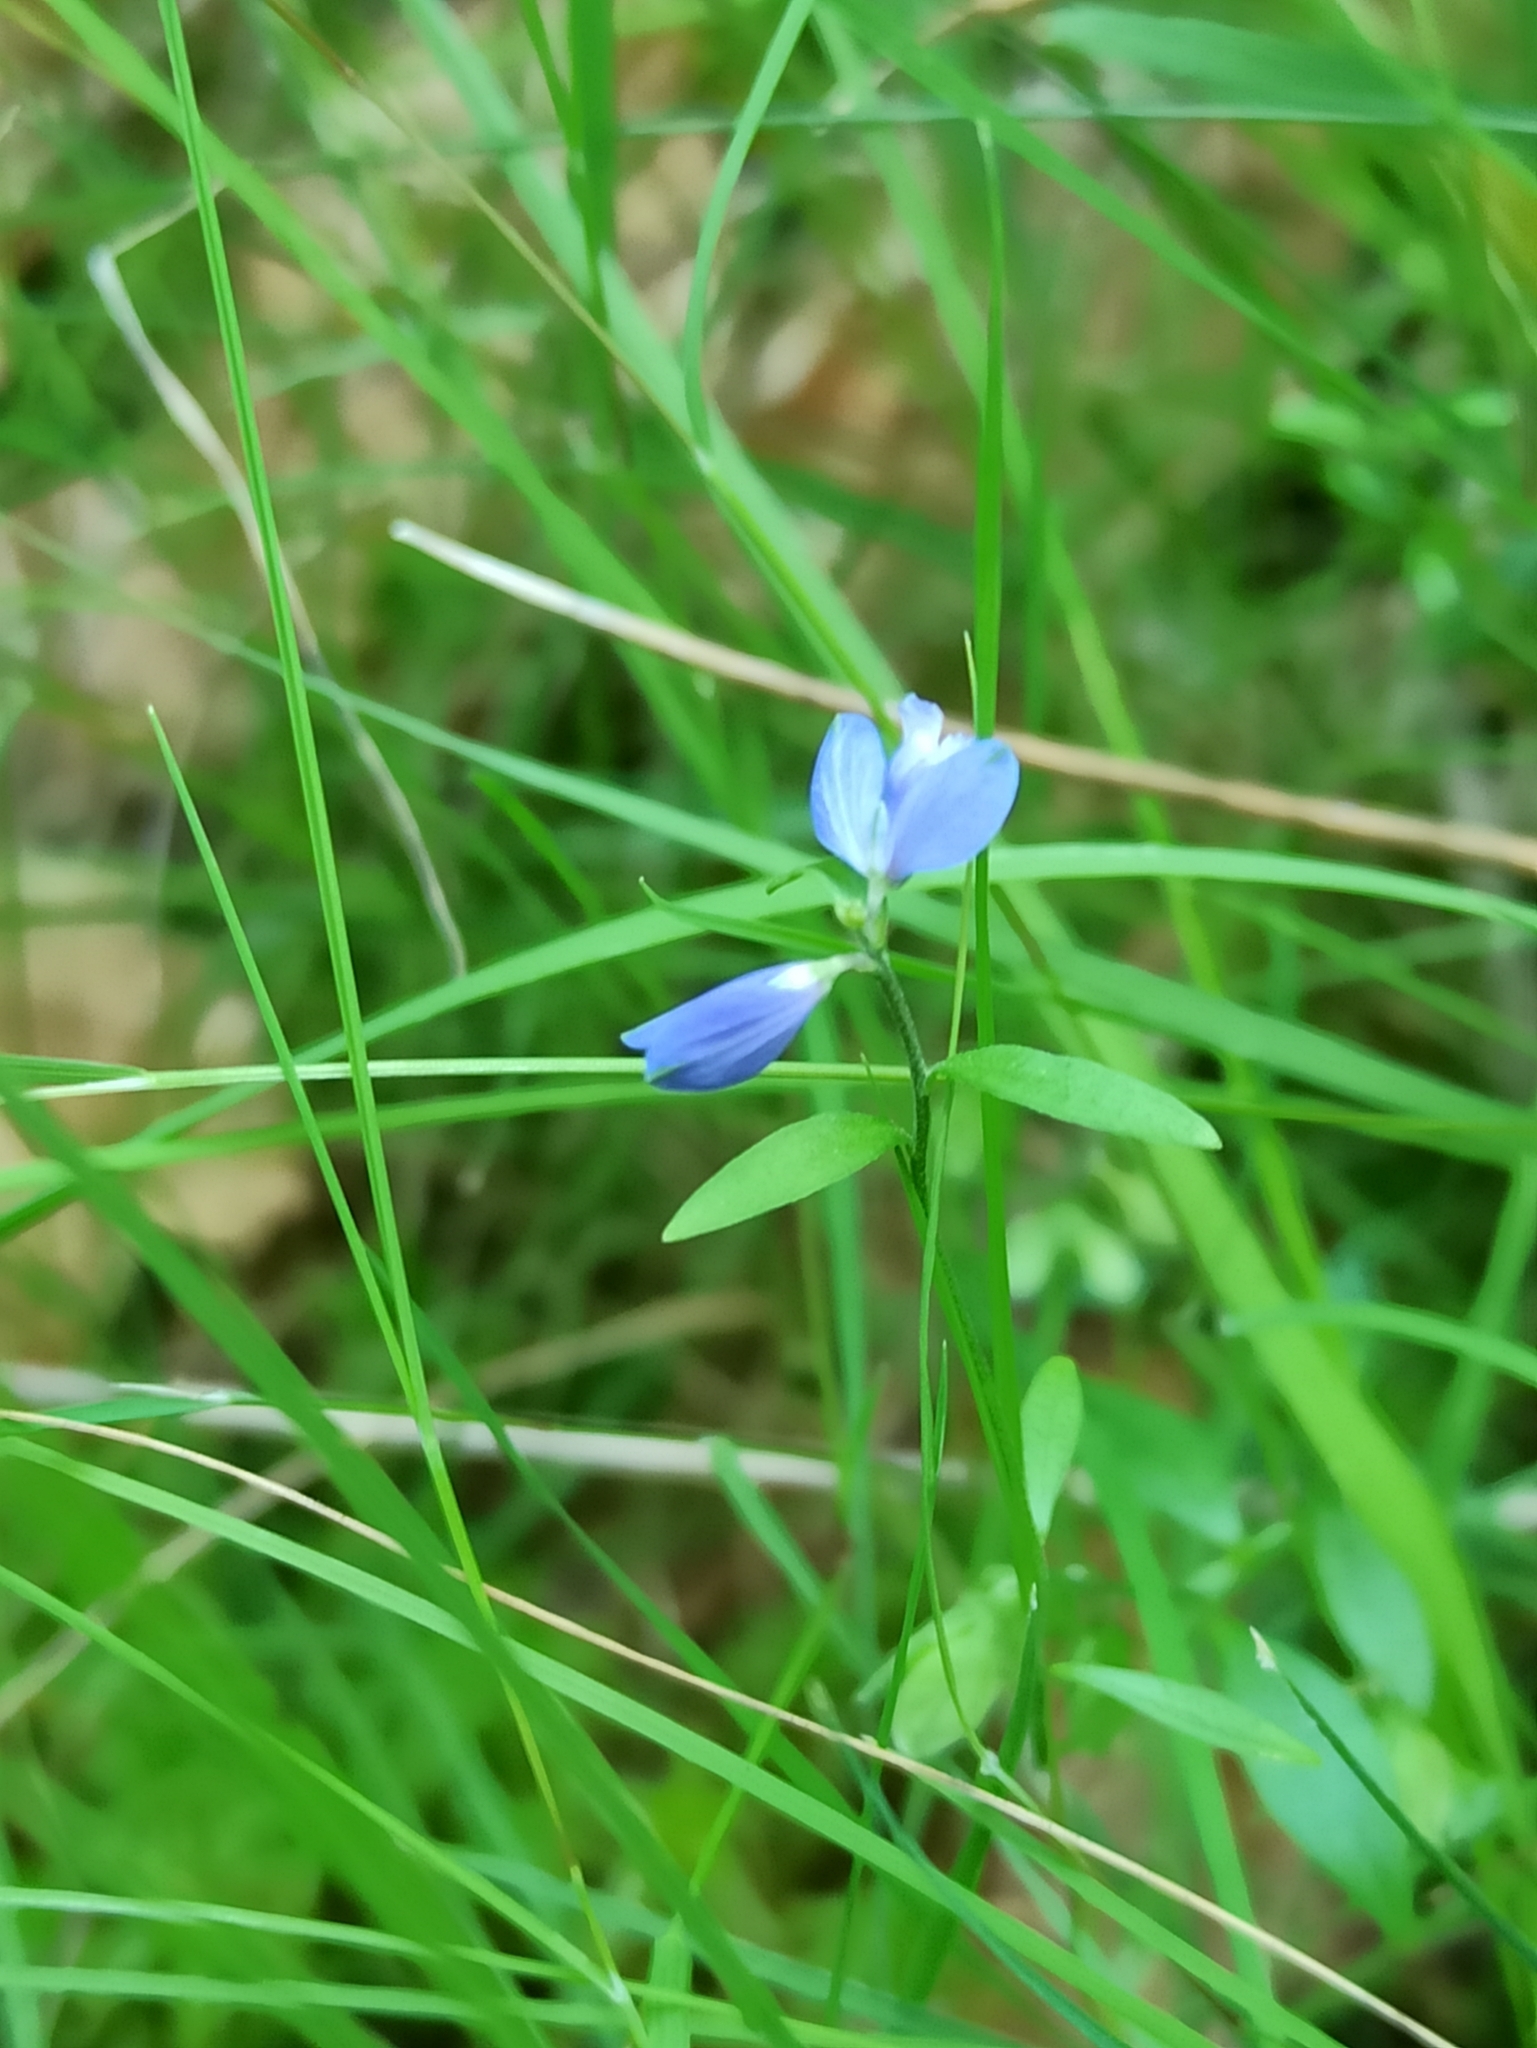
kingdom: Plantae
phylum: Tracheophyta
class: Magnoliopsida
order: Fabales
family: Polygalaceae
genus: Polygala
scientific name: Polygala serpyllifolia
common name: Heath milkwort
